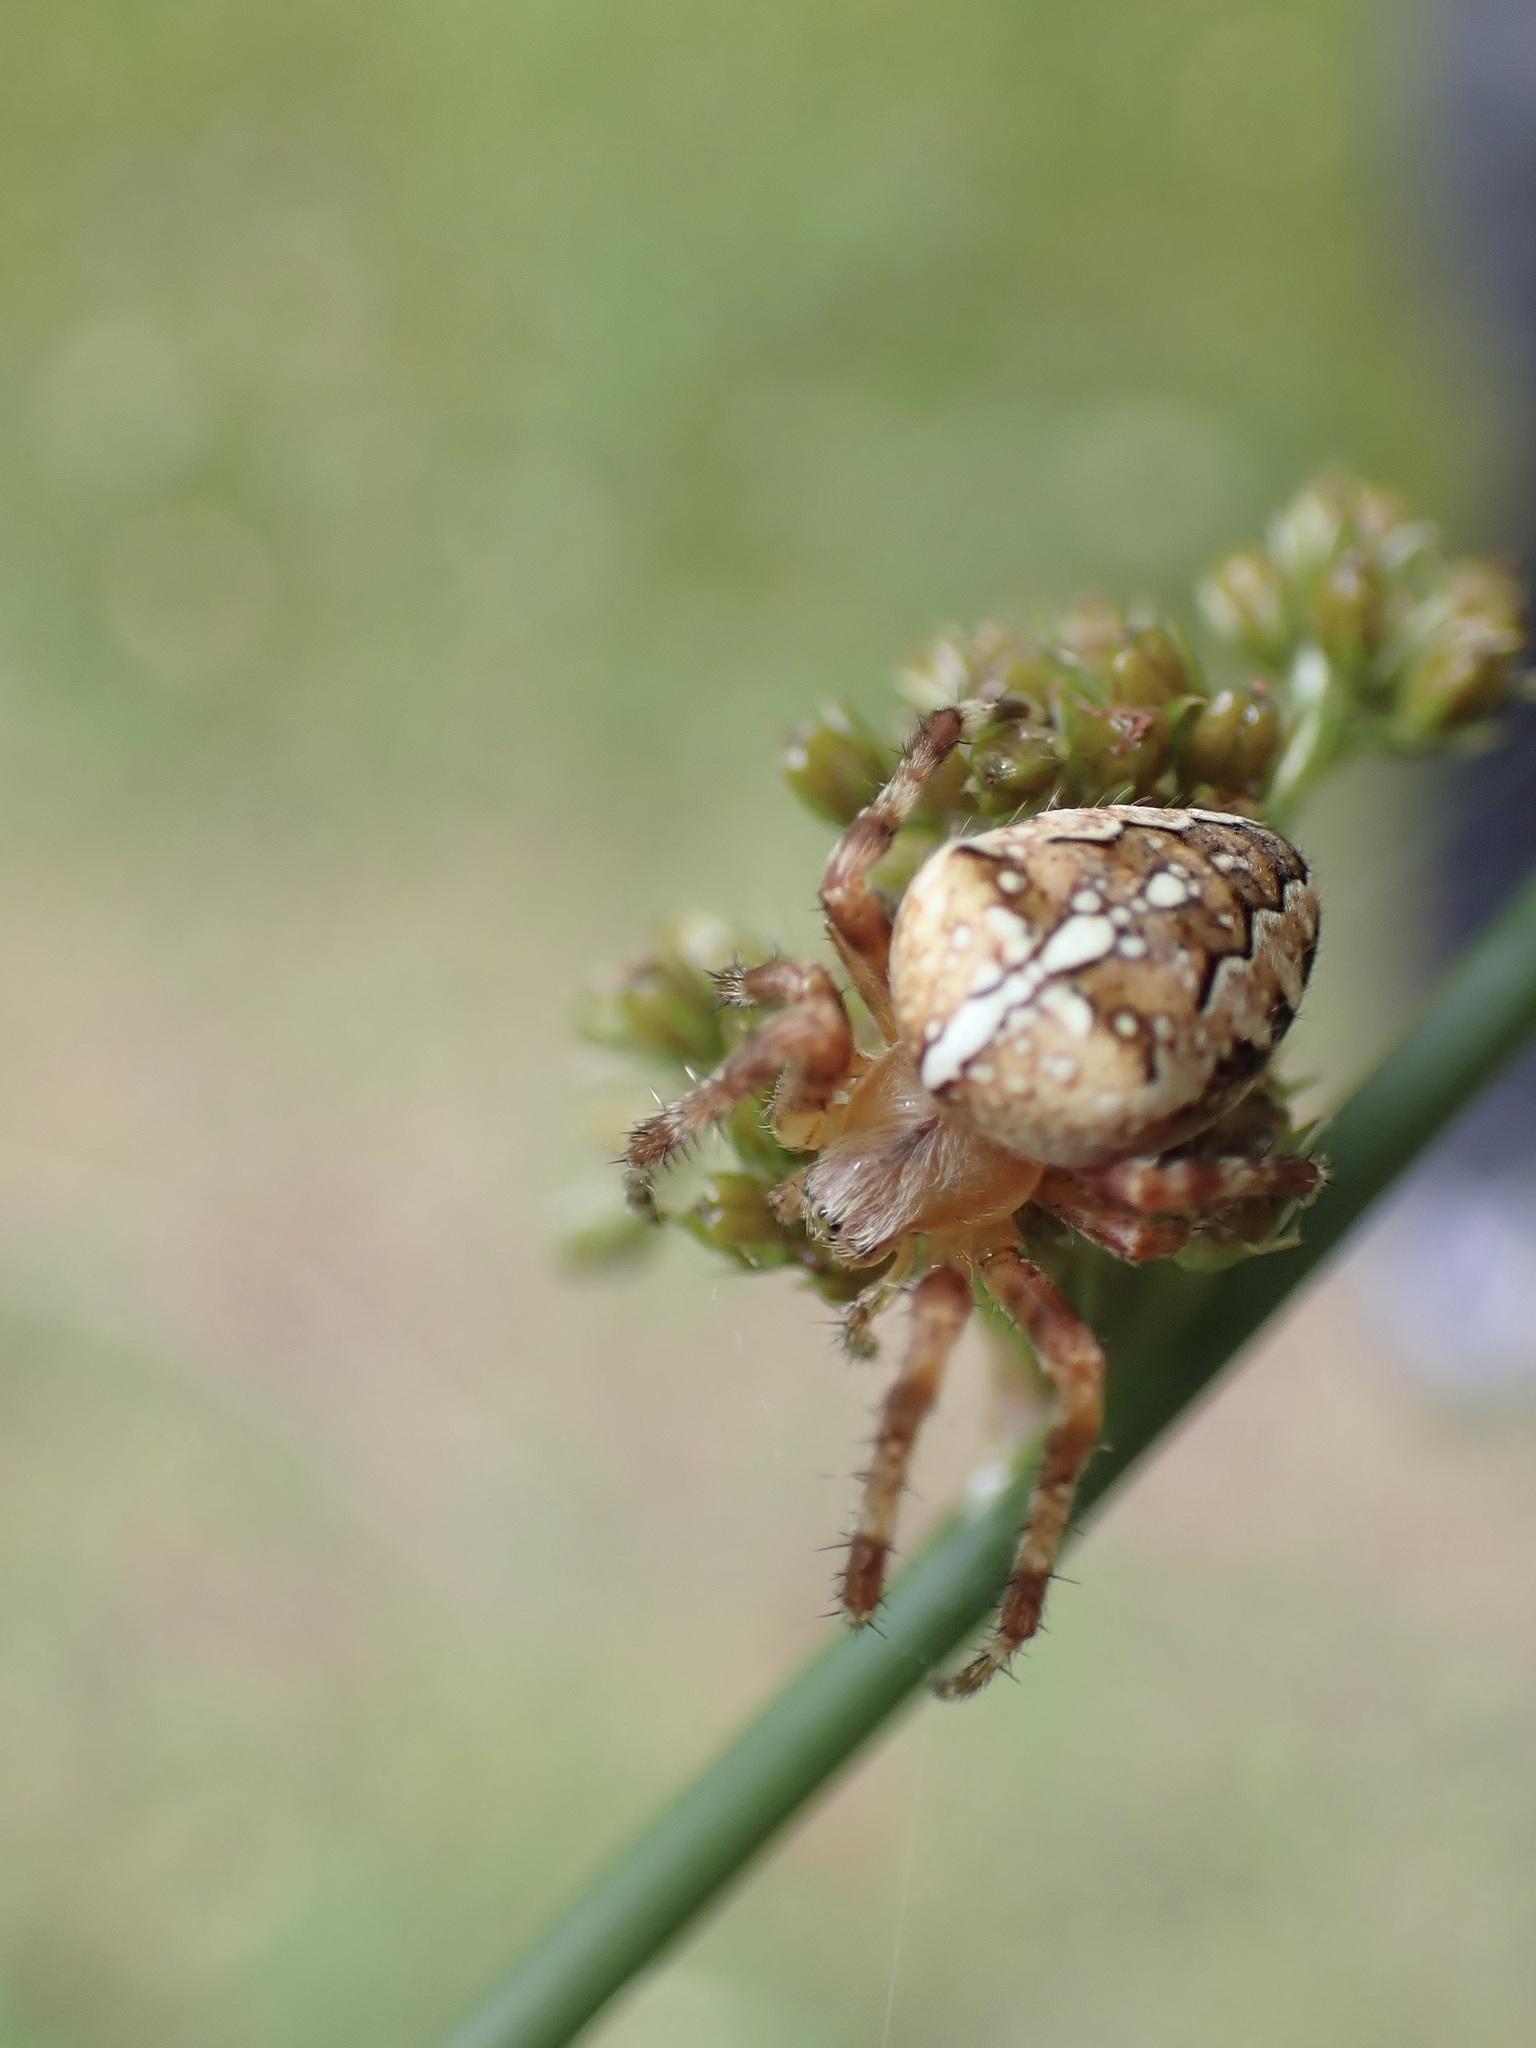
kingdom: Animalia
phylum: Arthropoda
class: Arachnida
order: Araneae
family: Araneidae
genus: Araneus
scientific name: Araneus diadematus
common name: Cross orbweaver
